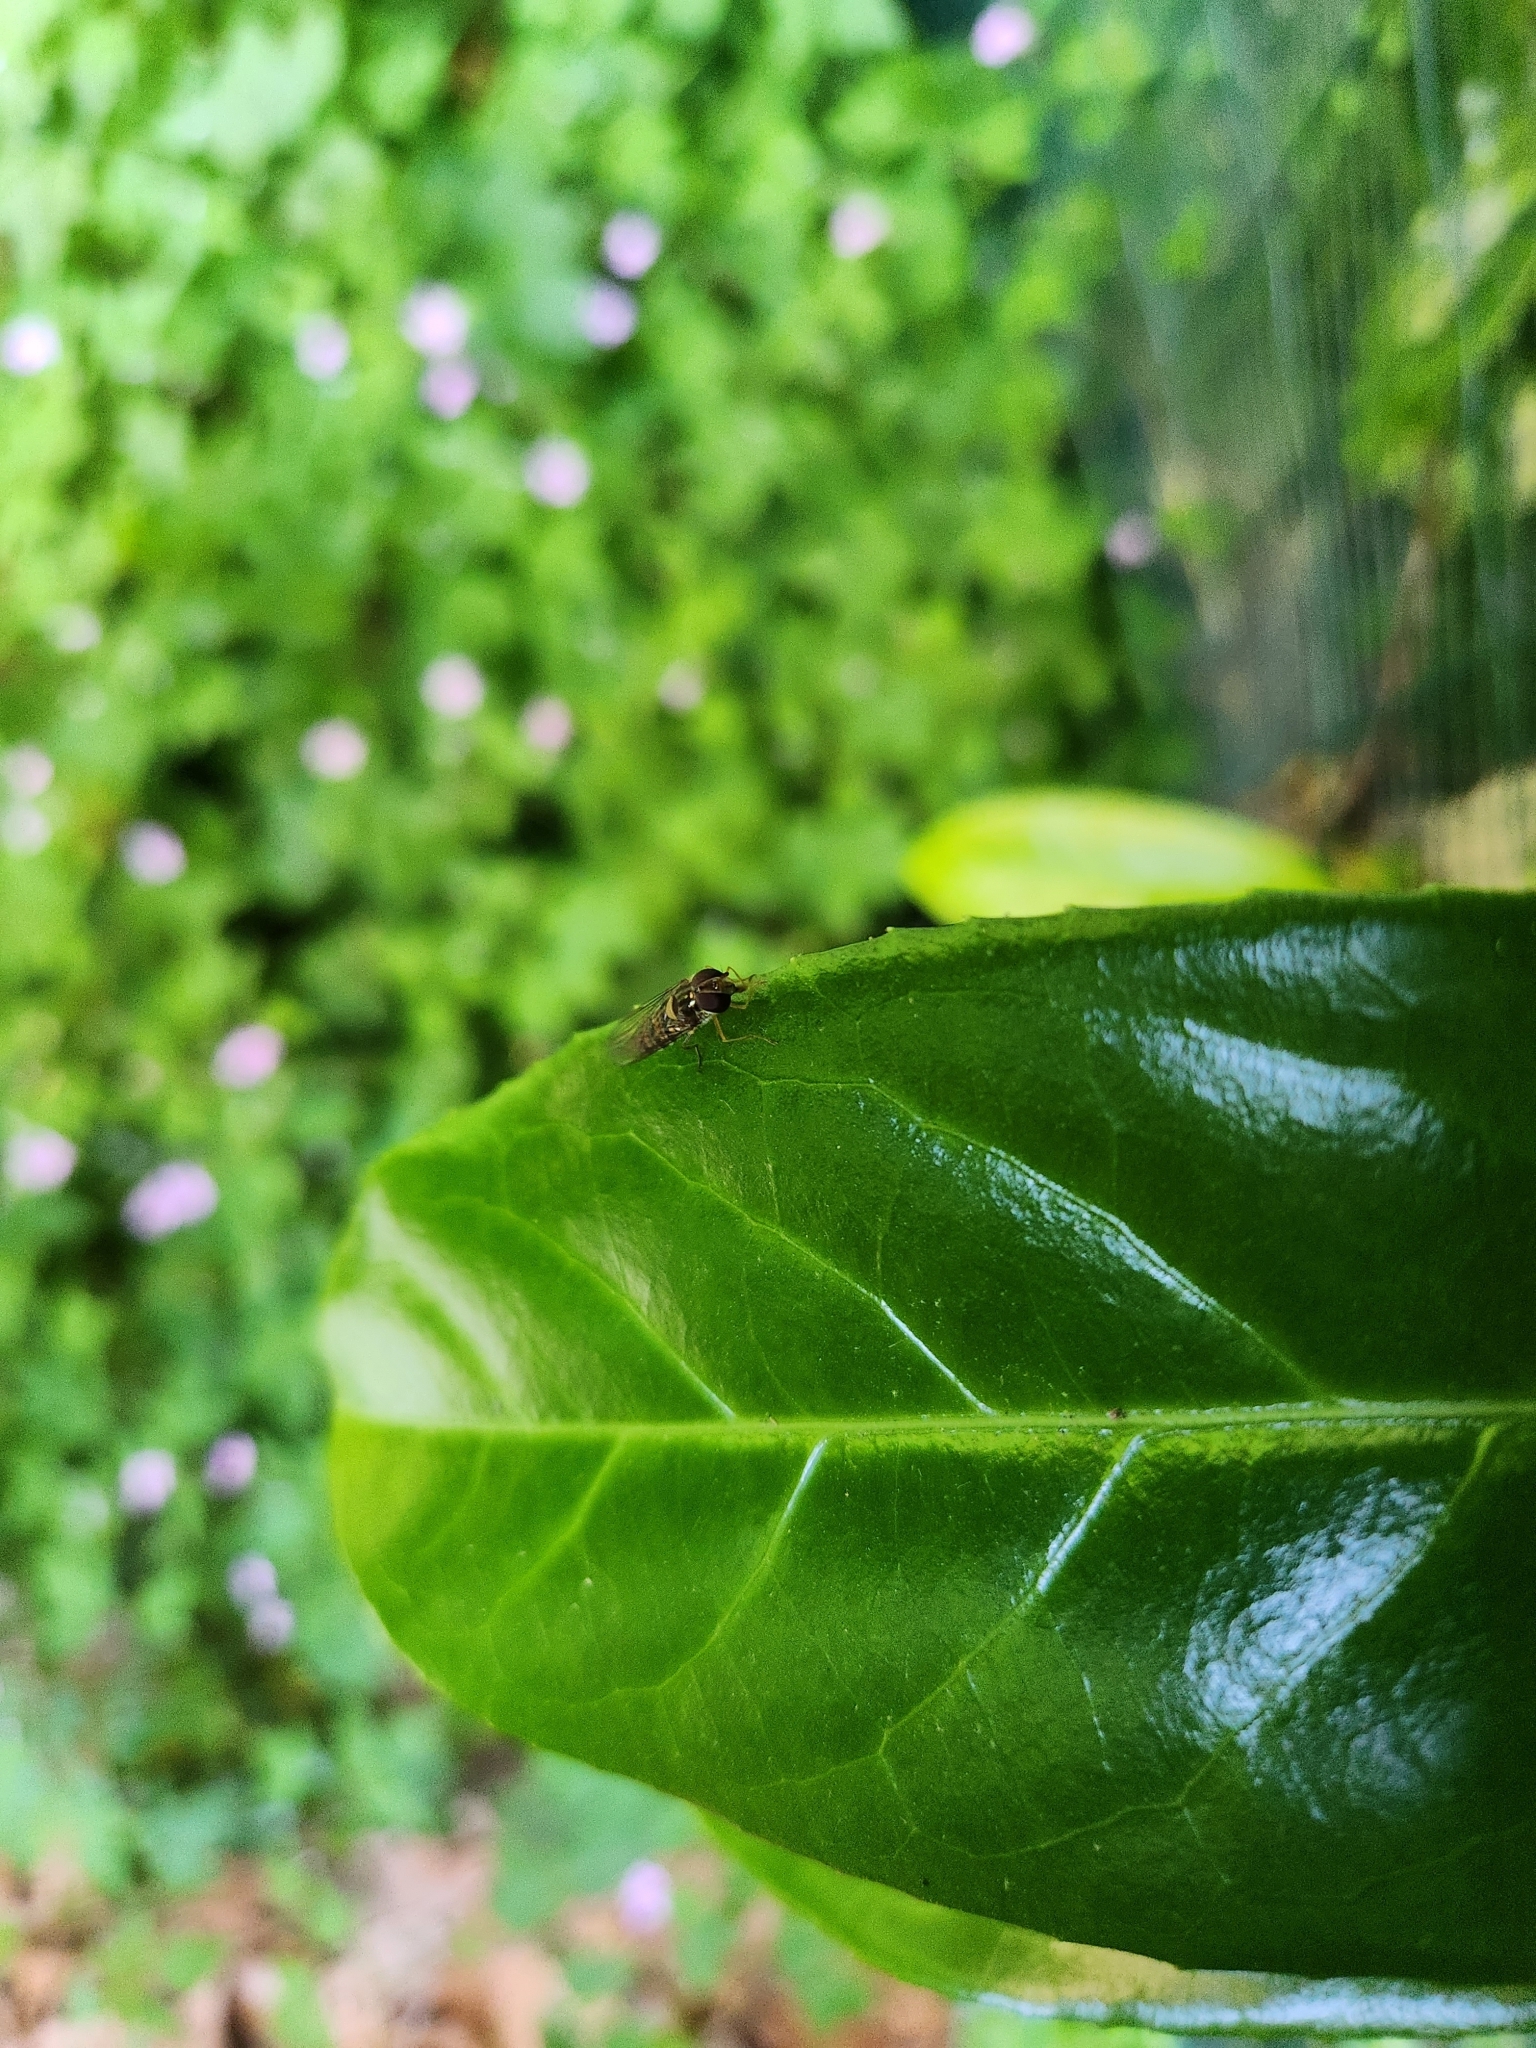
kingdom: Animalia
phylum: Arthropoda
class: Insecta
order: Diptera
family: Syrphidae
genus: Episyrphus
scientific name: Episyrphus balteatus
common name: Marmalade hoverfly
